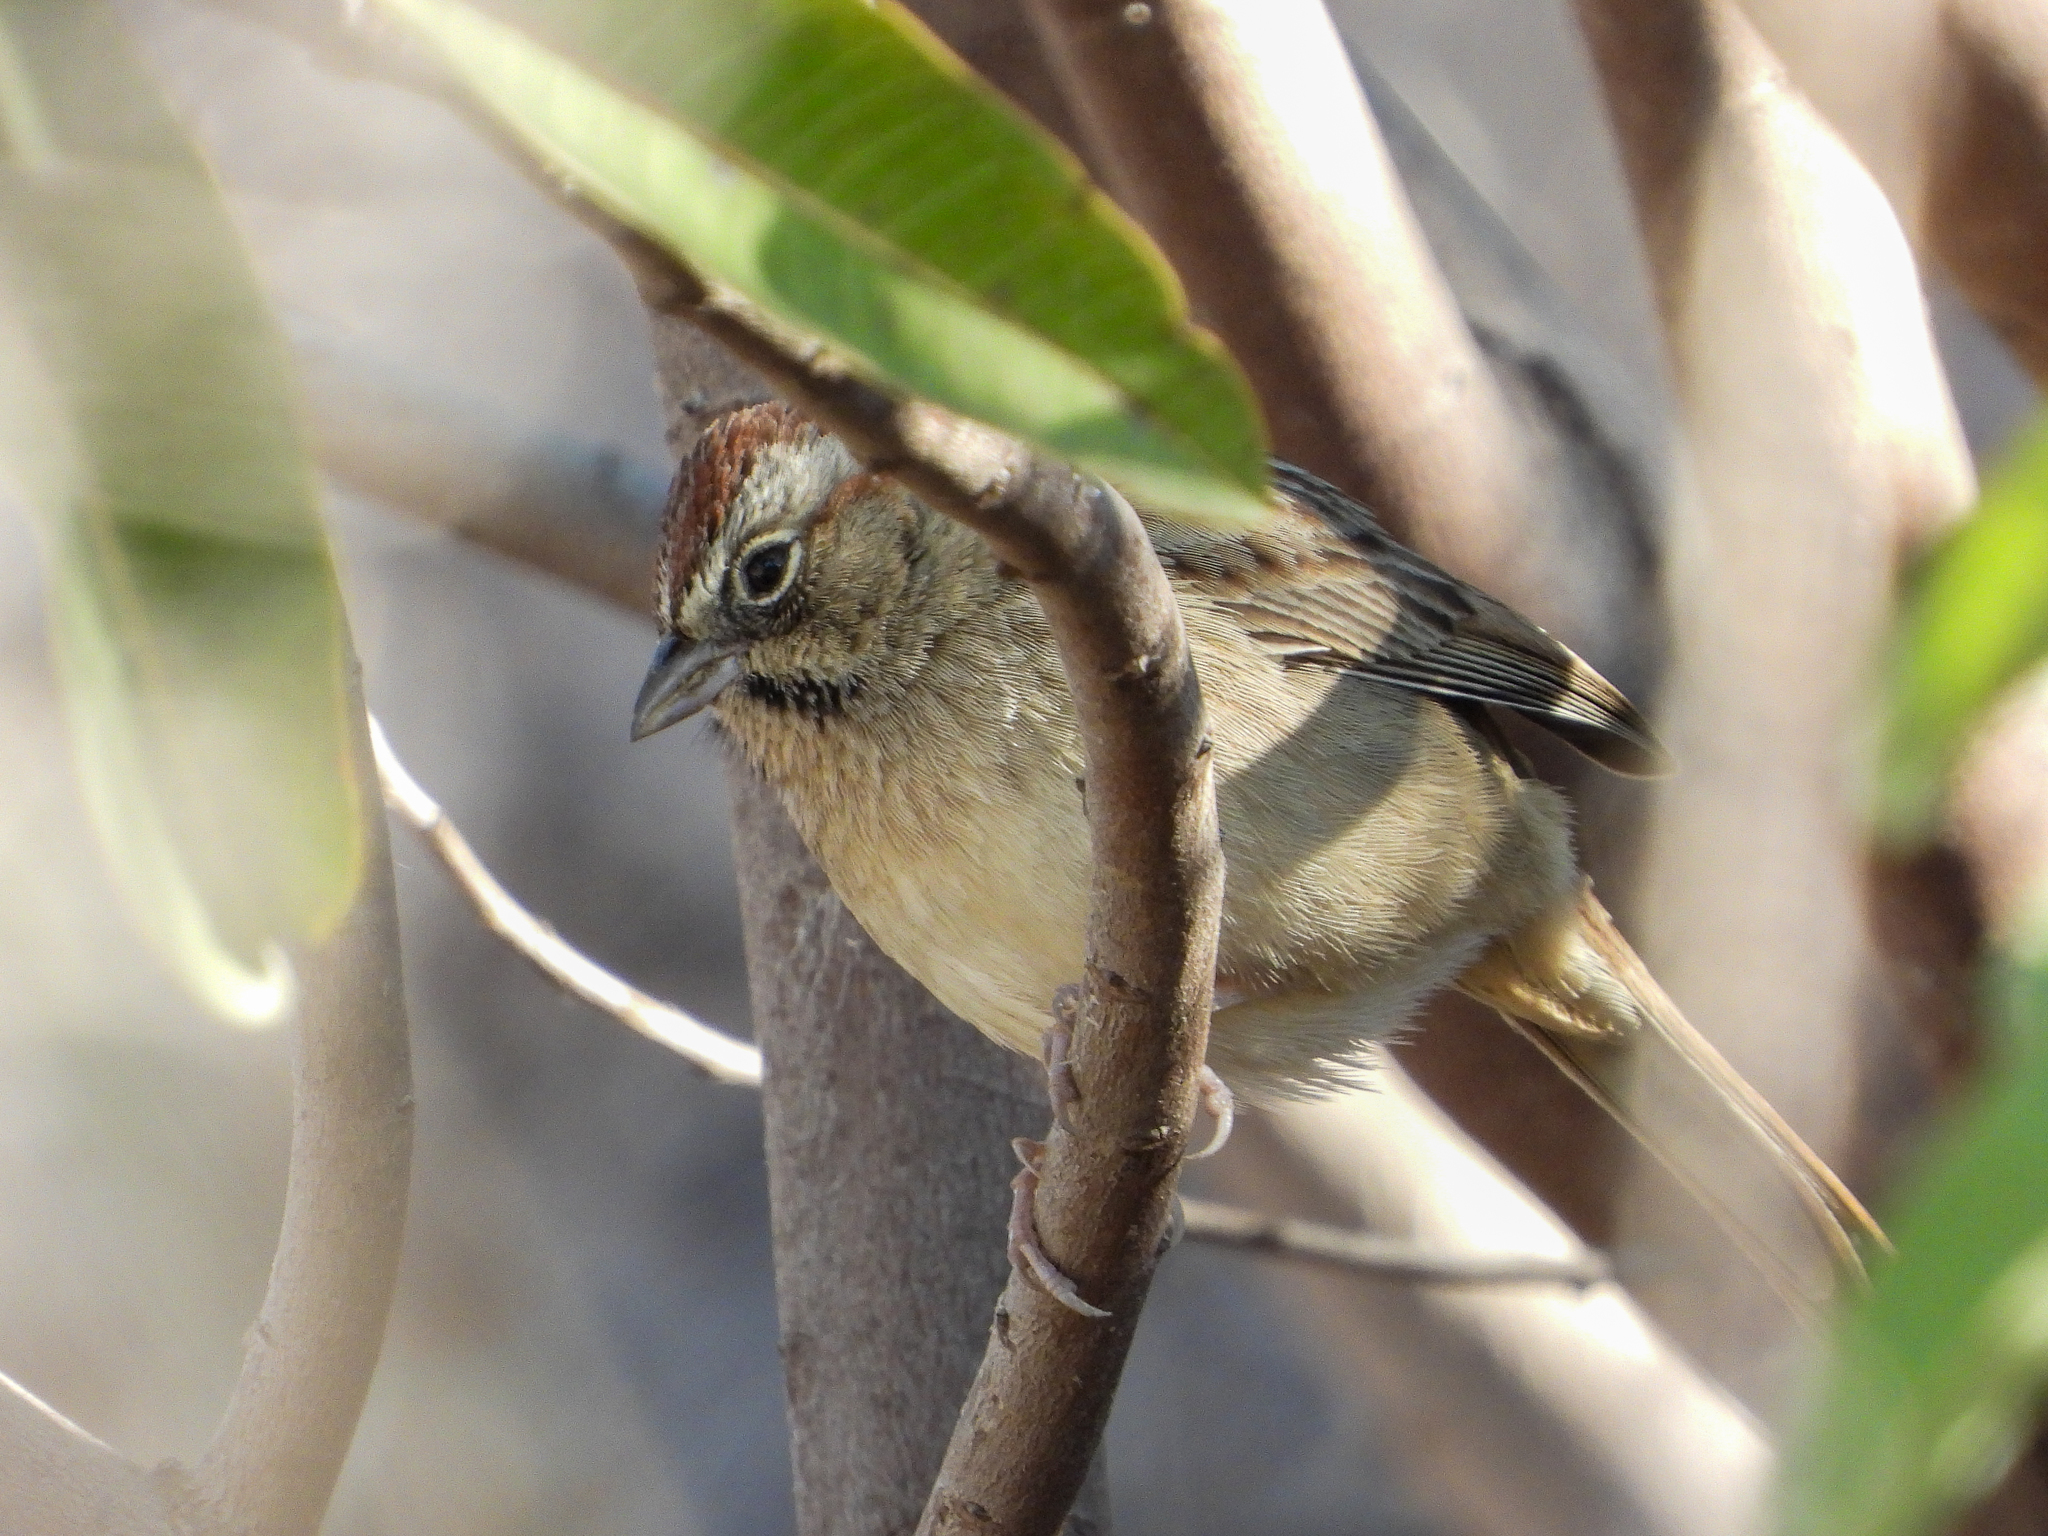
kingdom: Animalia
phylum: Chordata
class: Aves
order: Passeriformes
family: Passerellidae
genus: Aimophila
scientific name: Aimophila ruficeps
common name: Rufous-crowned sparrow
